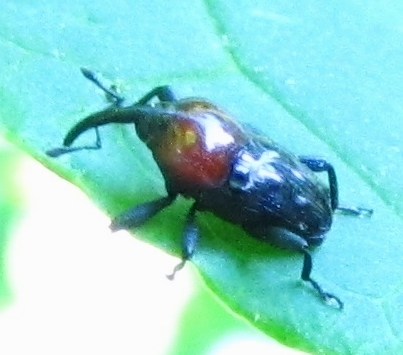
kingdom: Animalia
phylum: Arthropoda
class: Insecta
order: Coleoptera
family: Curculionidae
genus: Madarellus
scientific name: Madarellus undulatus
